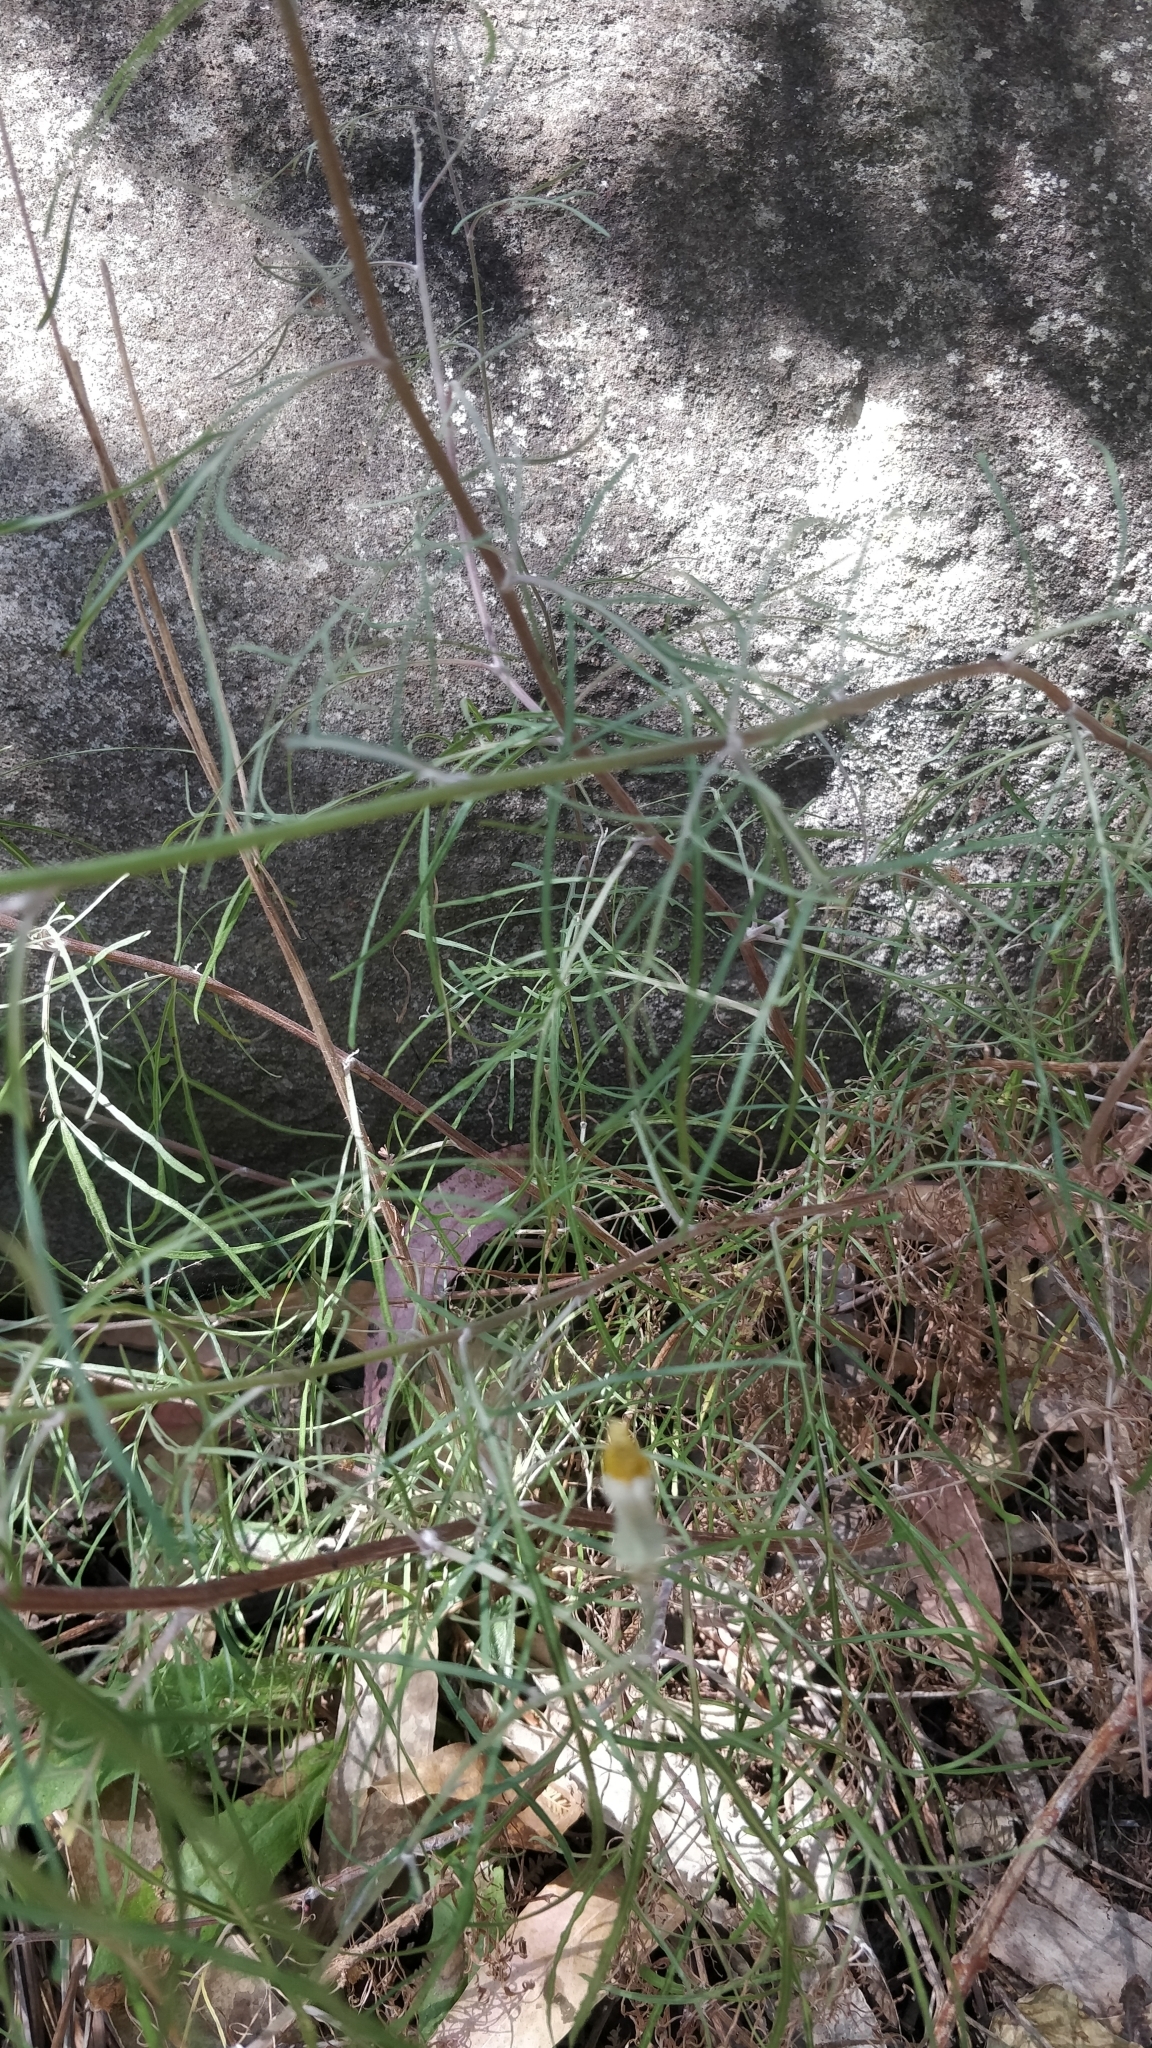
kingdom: Plantae
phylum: Tracheophyta
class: Magnoliopsida
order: Asterales
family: Asteraceae
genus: Tolpis
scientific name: Tolpis succulenta
